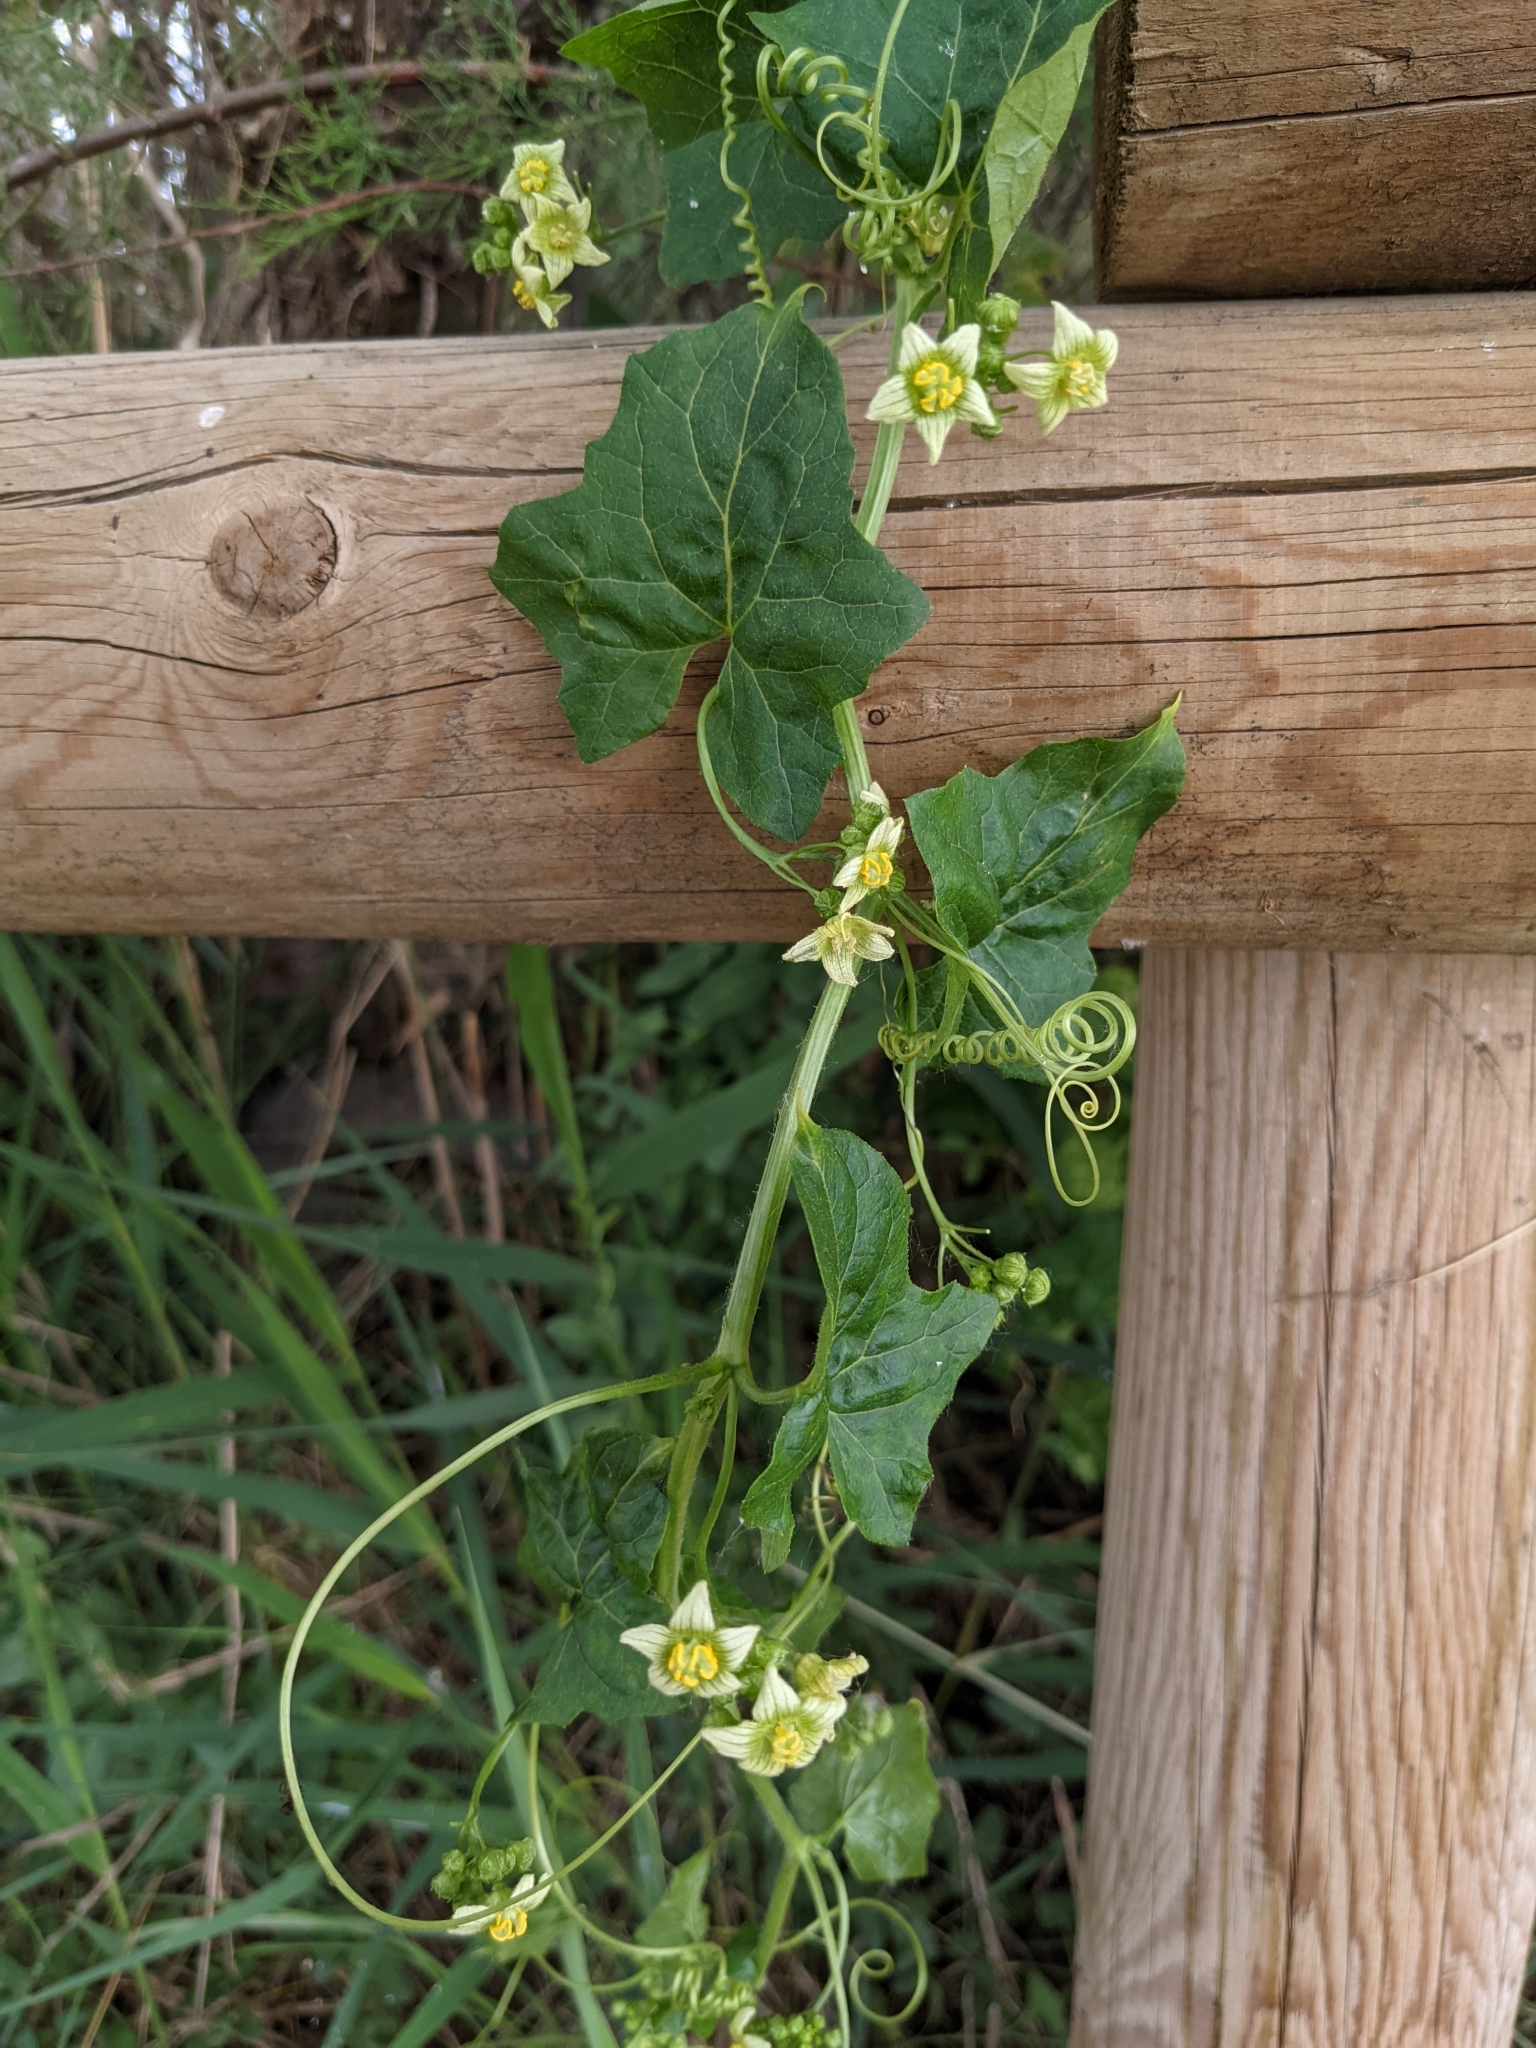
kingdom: Plantae
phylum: Tracheophyta
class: Magnoliopsida
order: Cucurbitales
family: Cucurbitaceae
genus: Bryonia
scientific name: Bryonia dioica
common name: White bryony
